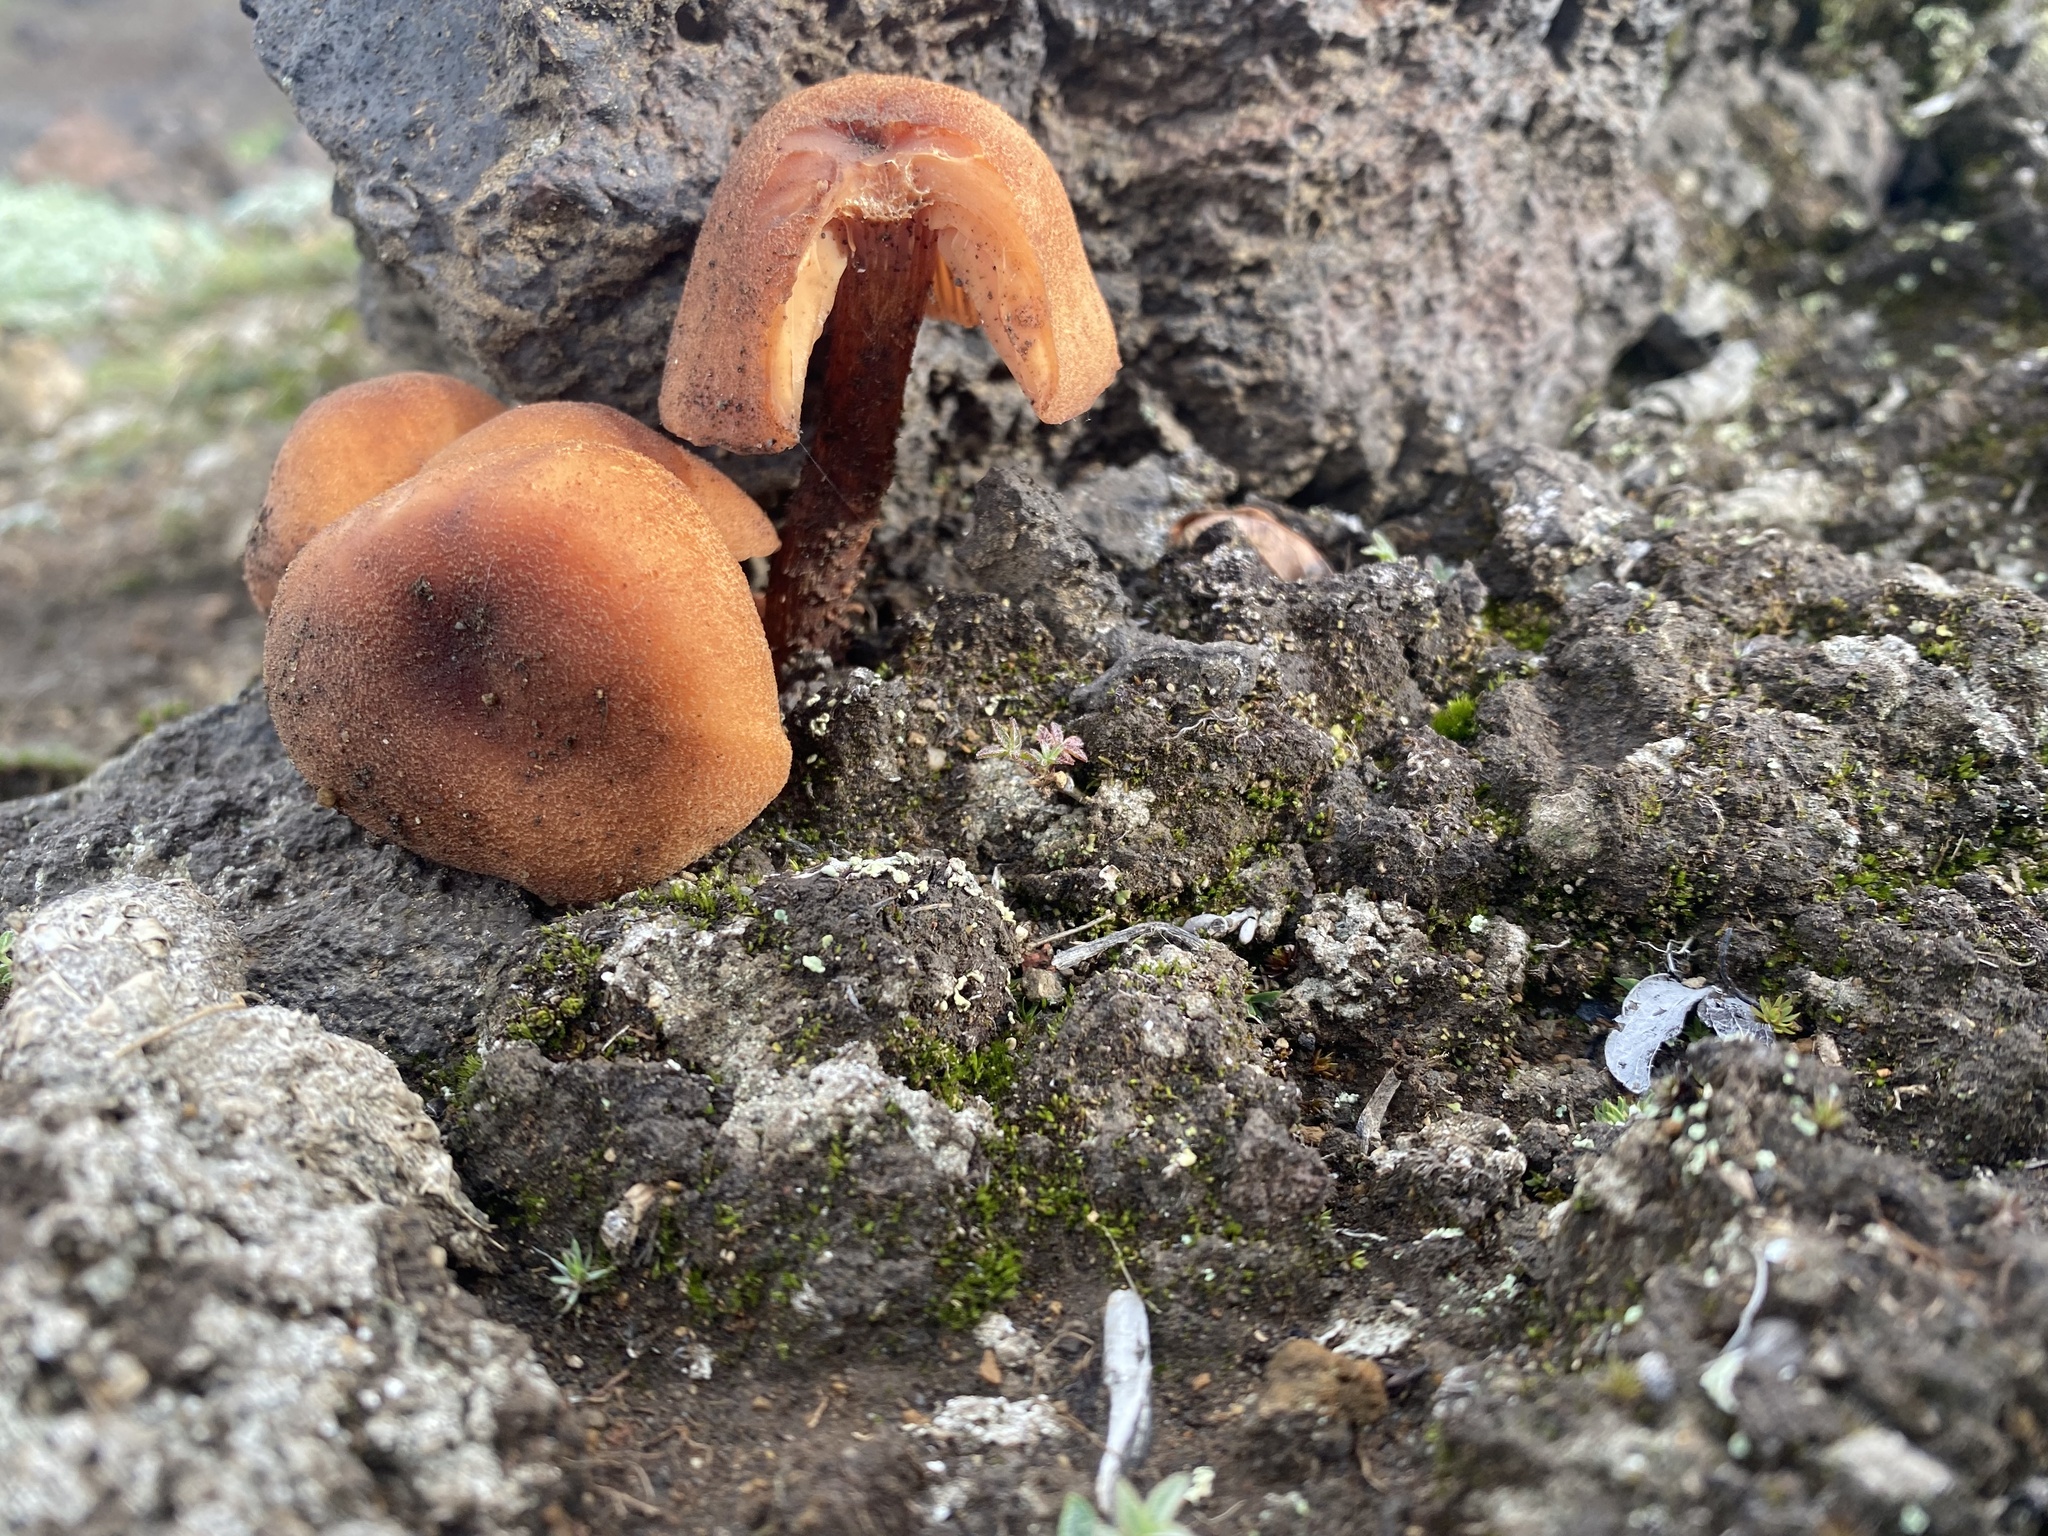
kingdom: Fungi
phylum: Basidiomycota
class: Agaricomycetes
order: Agaricales
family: Physalacriaceae
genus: Flammulina
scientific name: Flammulina velutipes
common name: Velvet shank
